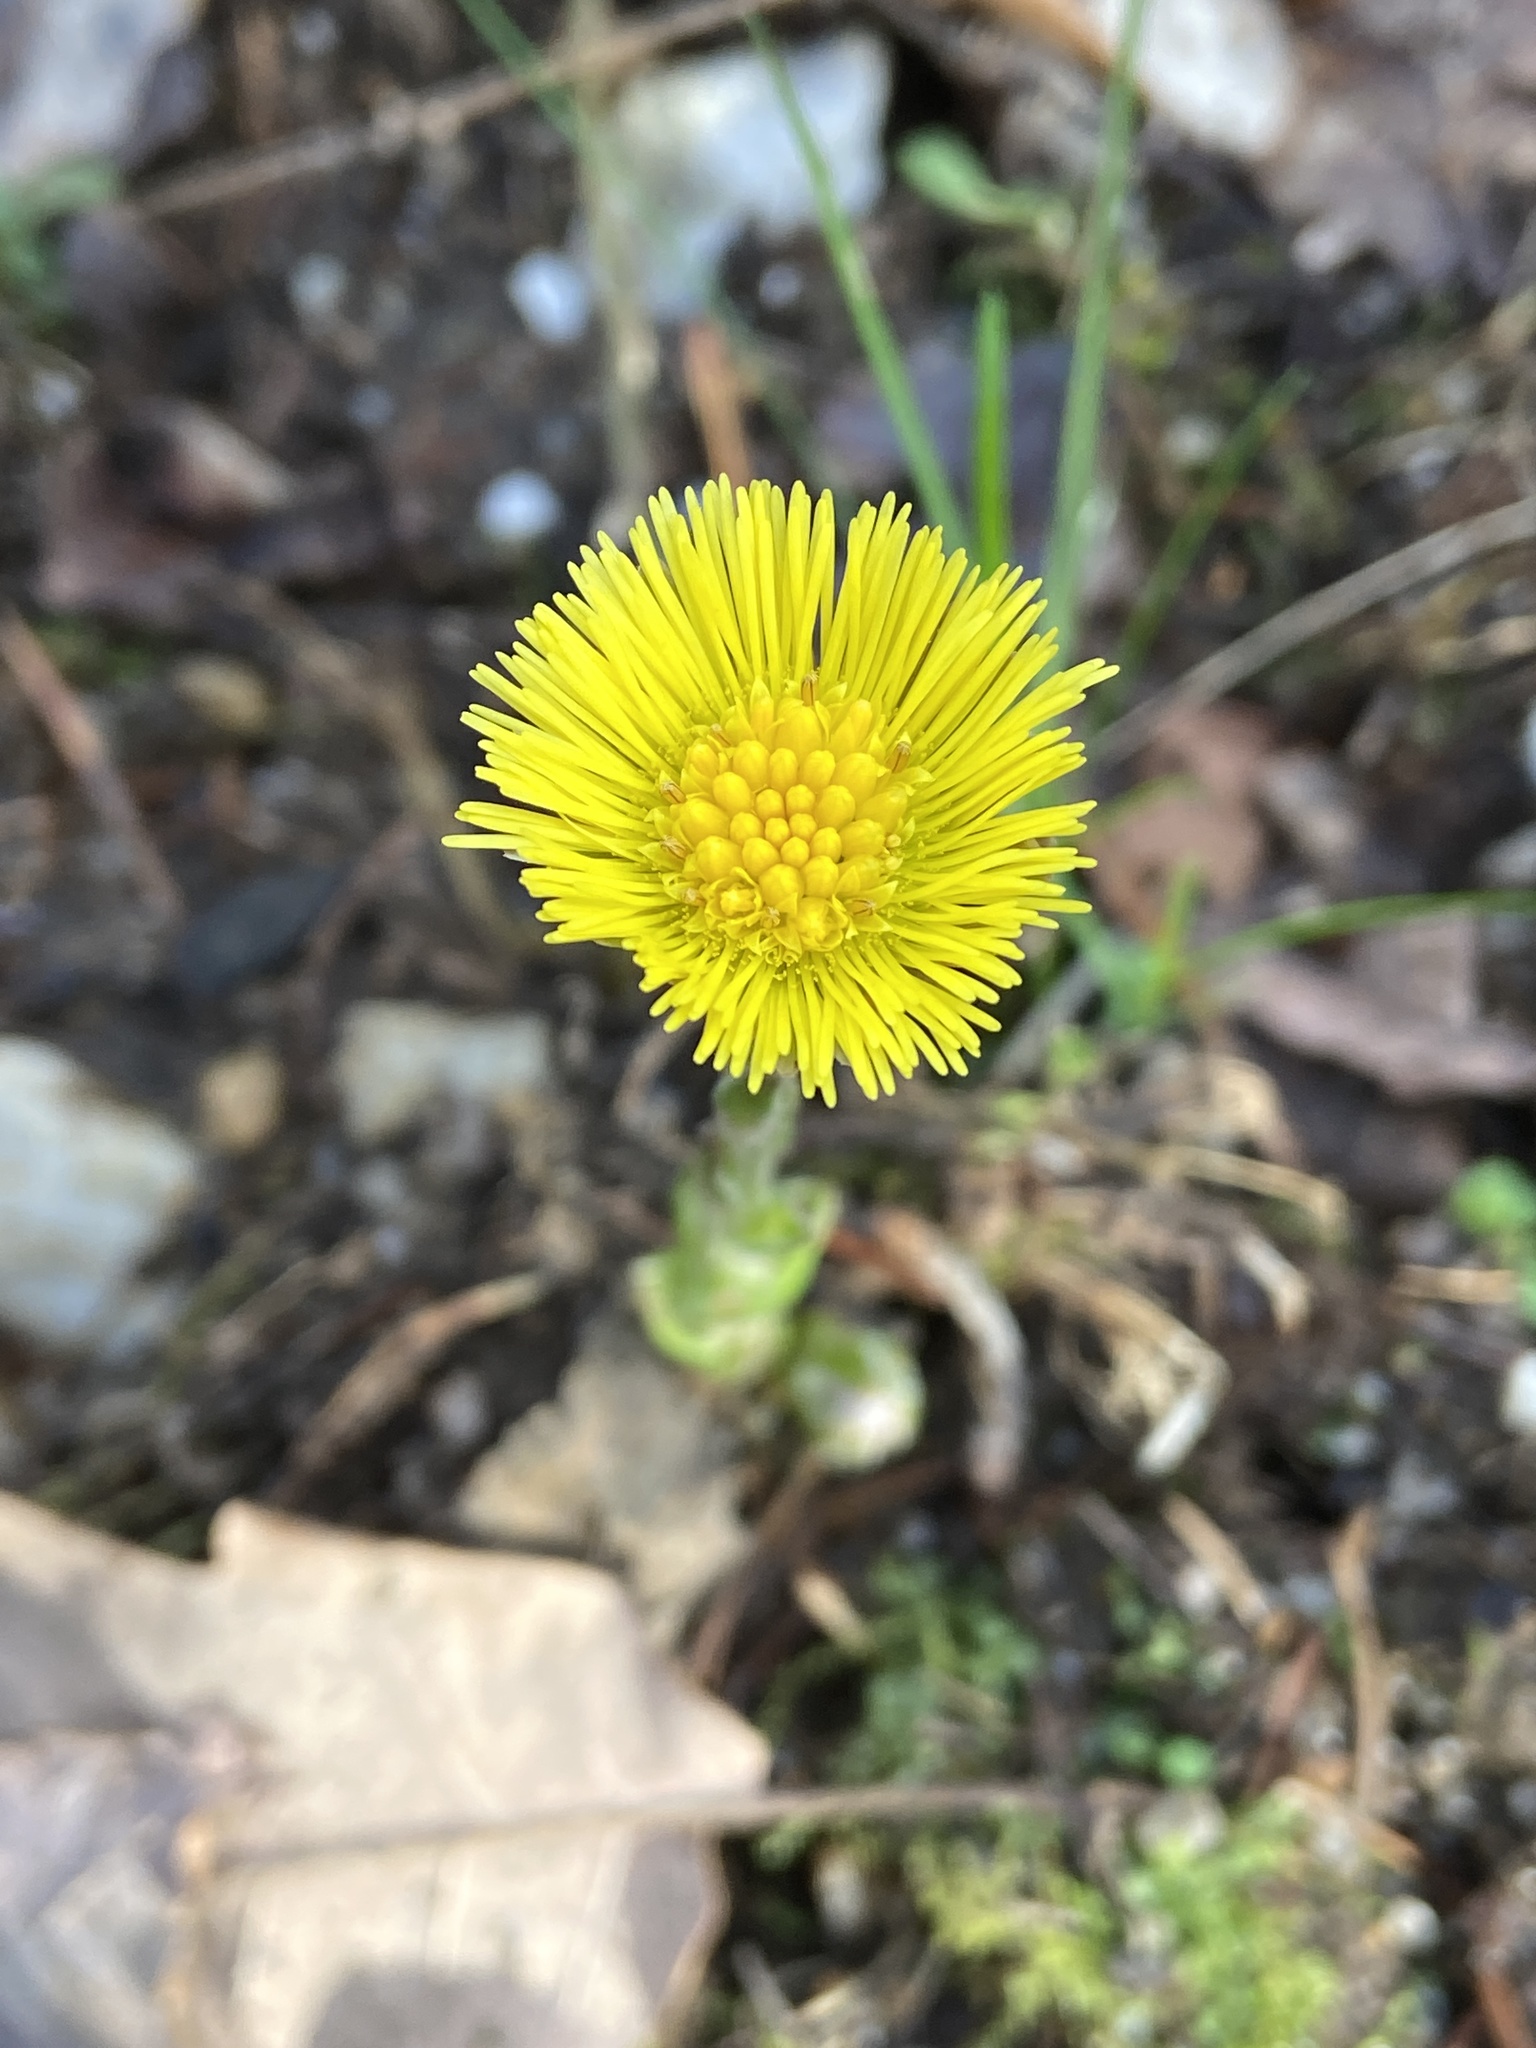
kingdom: Plantae
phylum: Tracheophyta
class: Magnoliopsida
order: Asterales
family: Asteraceae
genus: Tussilago
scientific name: Tussilago farfara
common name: Coltsfoot
